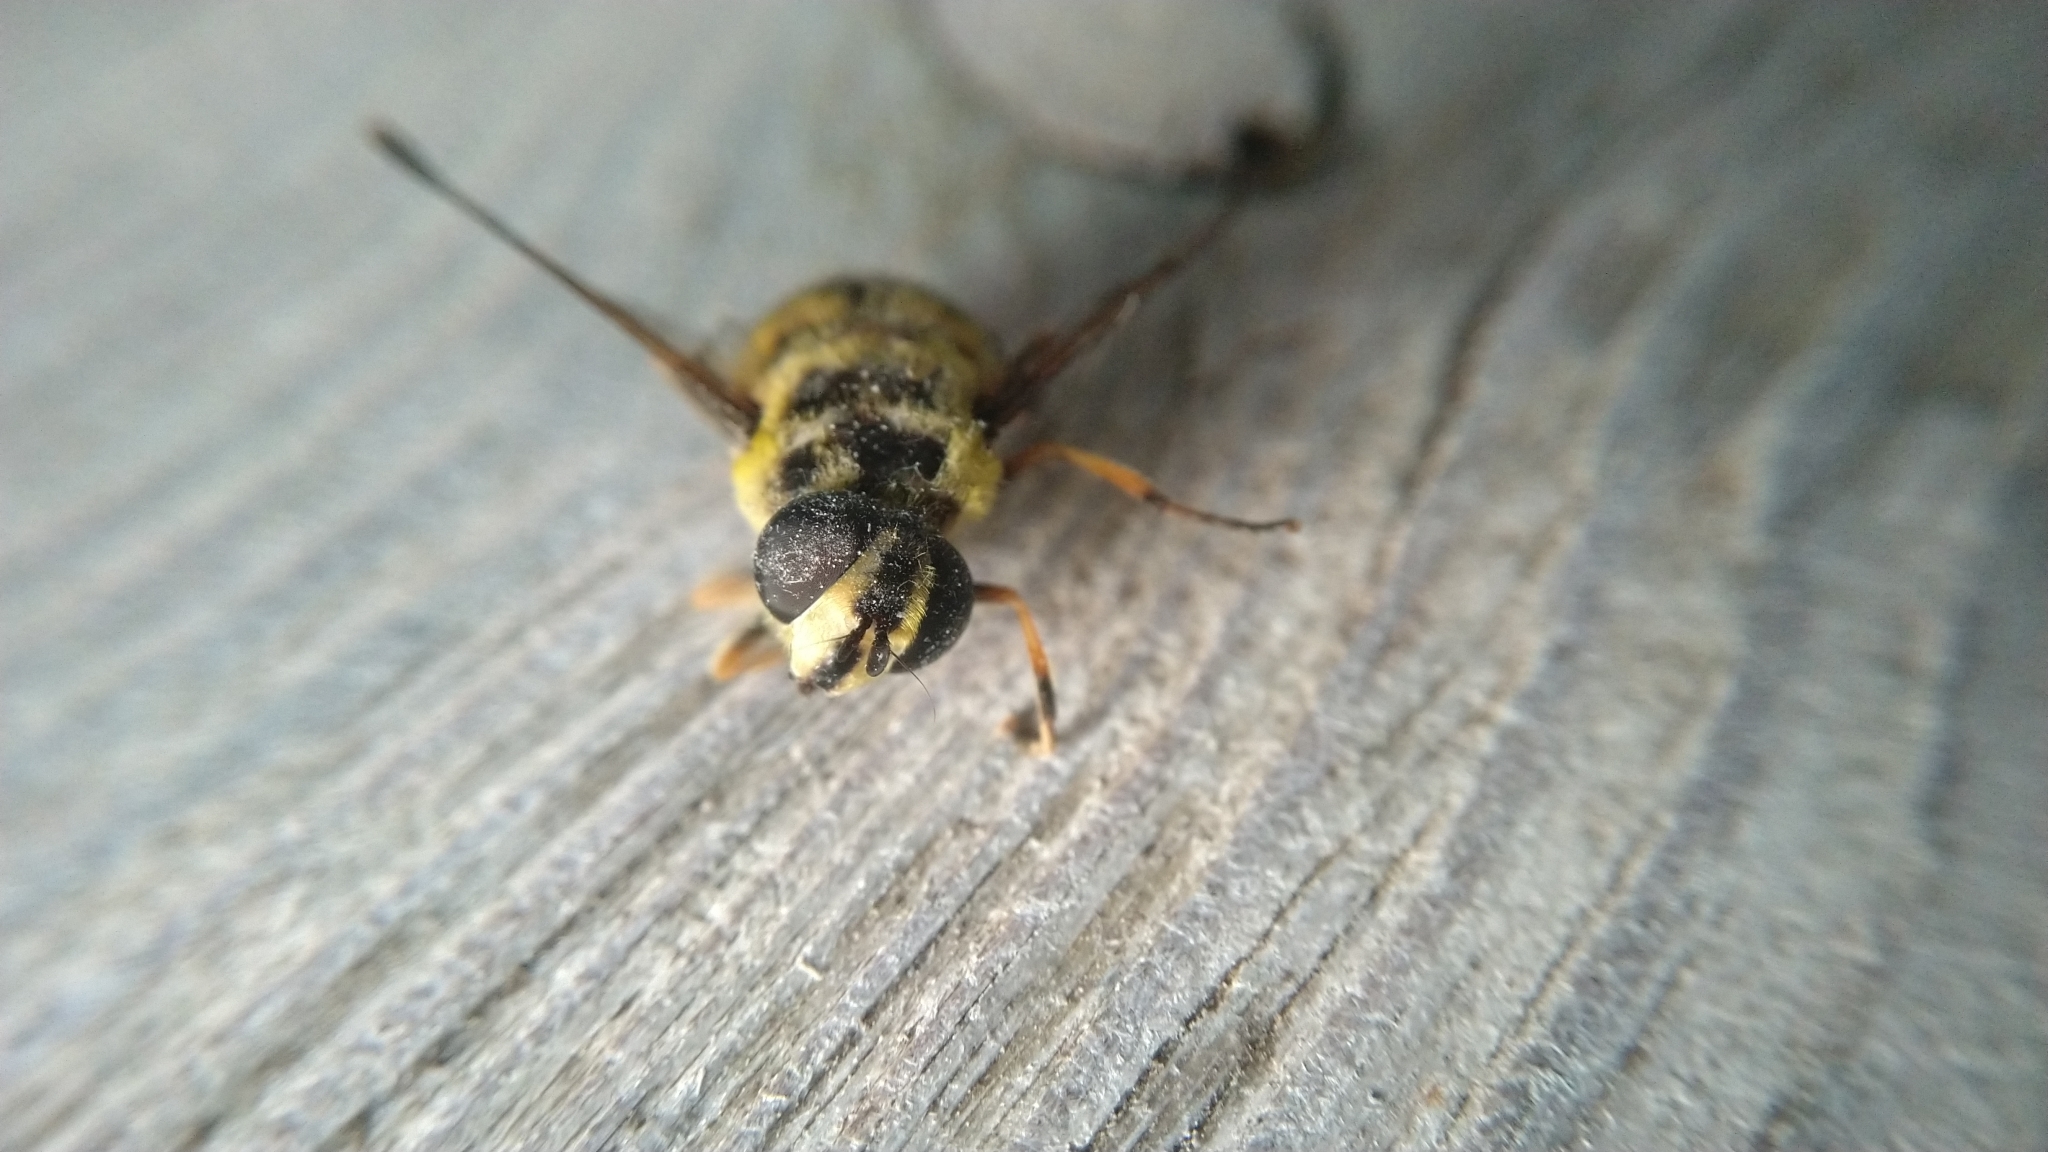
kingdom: Animalia
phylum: Arthropoda
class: Insecta
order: Diptera
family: Syrphidae
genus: Myathropa
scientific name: Myathropa florea
